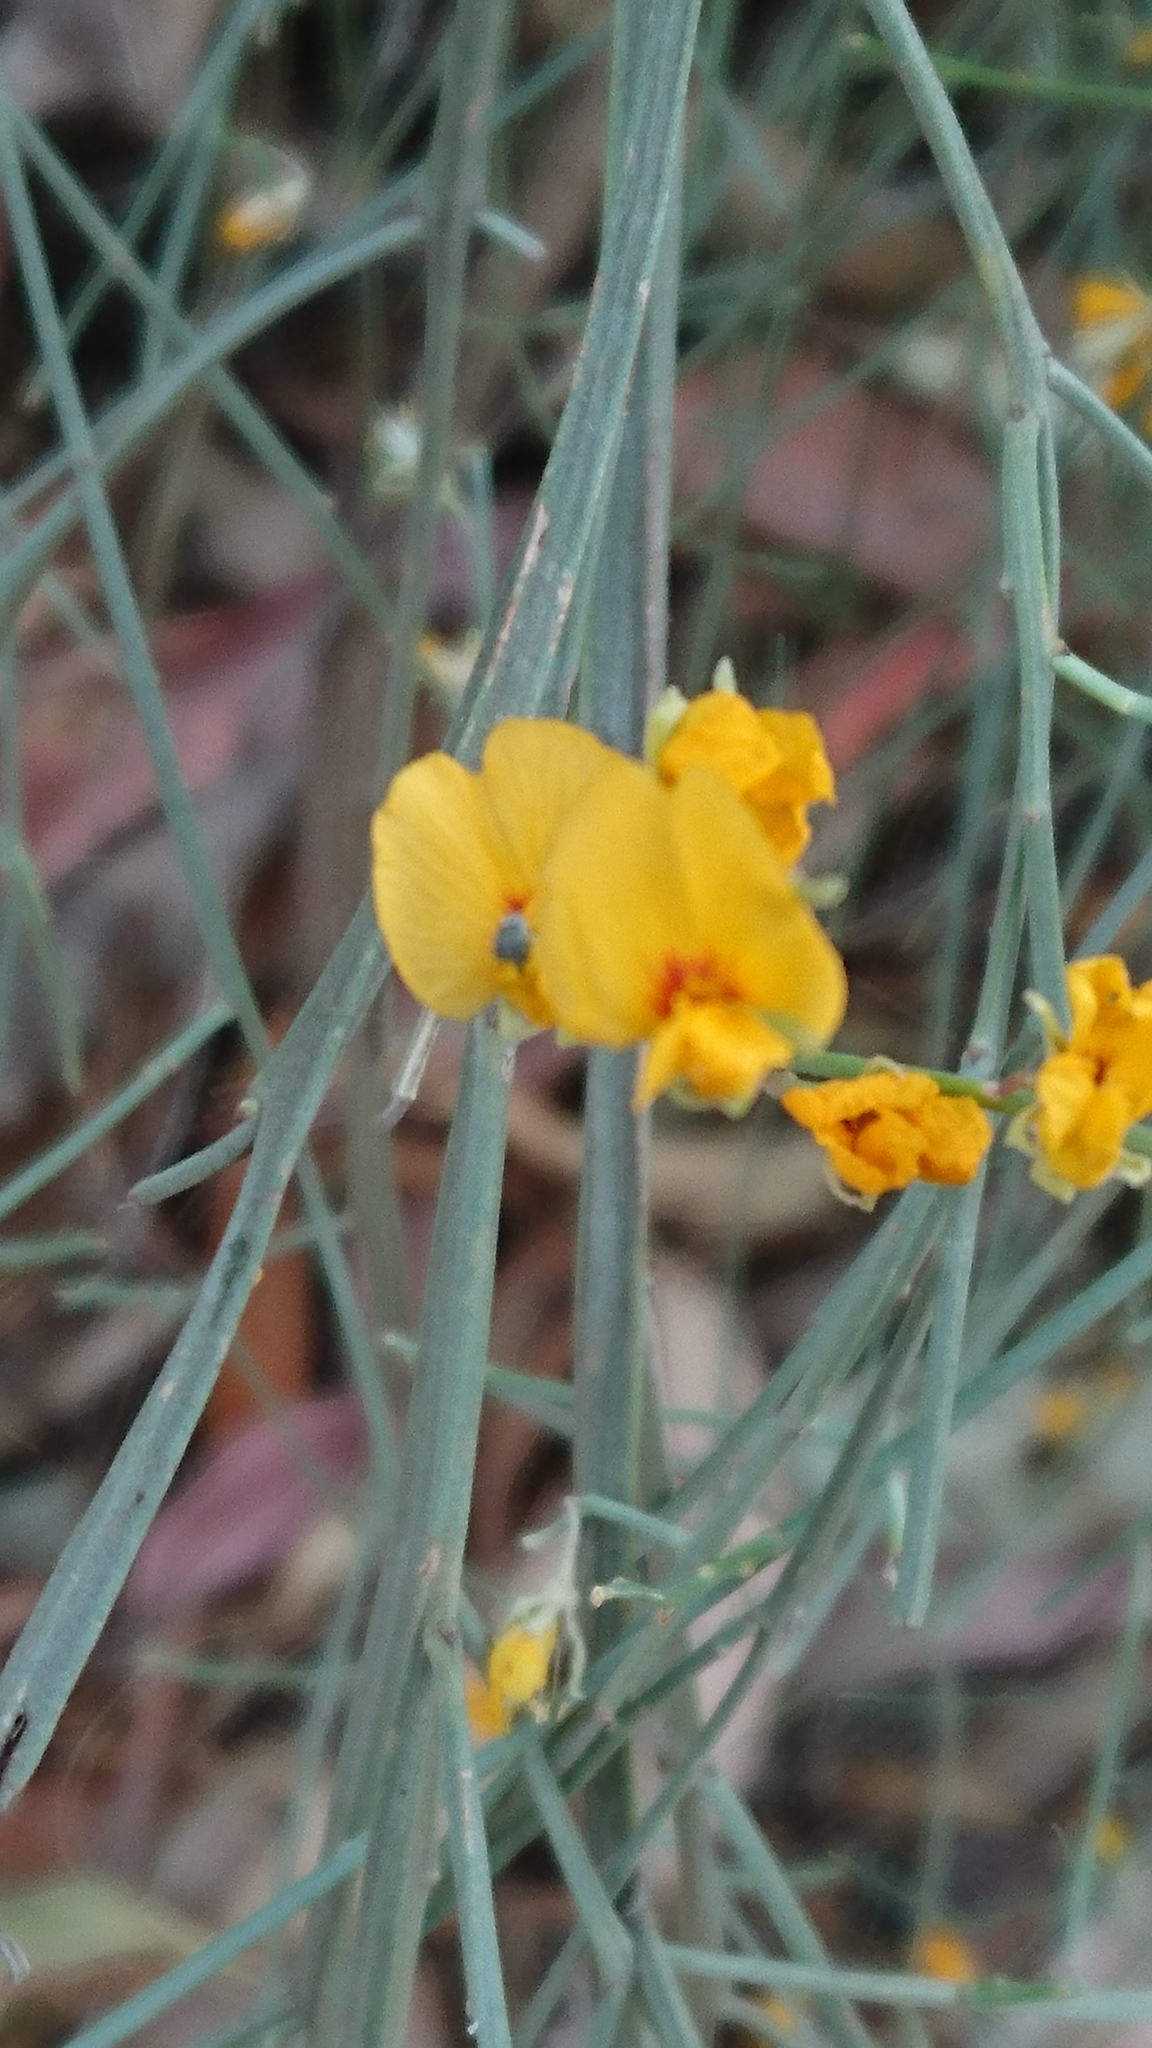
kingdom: Plantae
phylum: Tracheophyta
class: Magnoliopsida
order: Fabales
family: Fabaceae
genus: Jacksonia
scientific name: Jacksonia scoparia
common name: Dogwood
